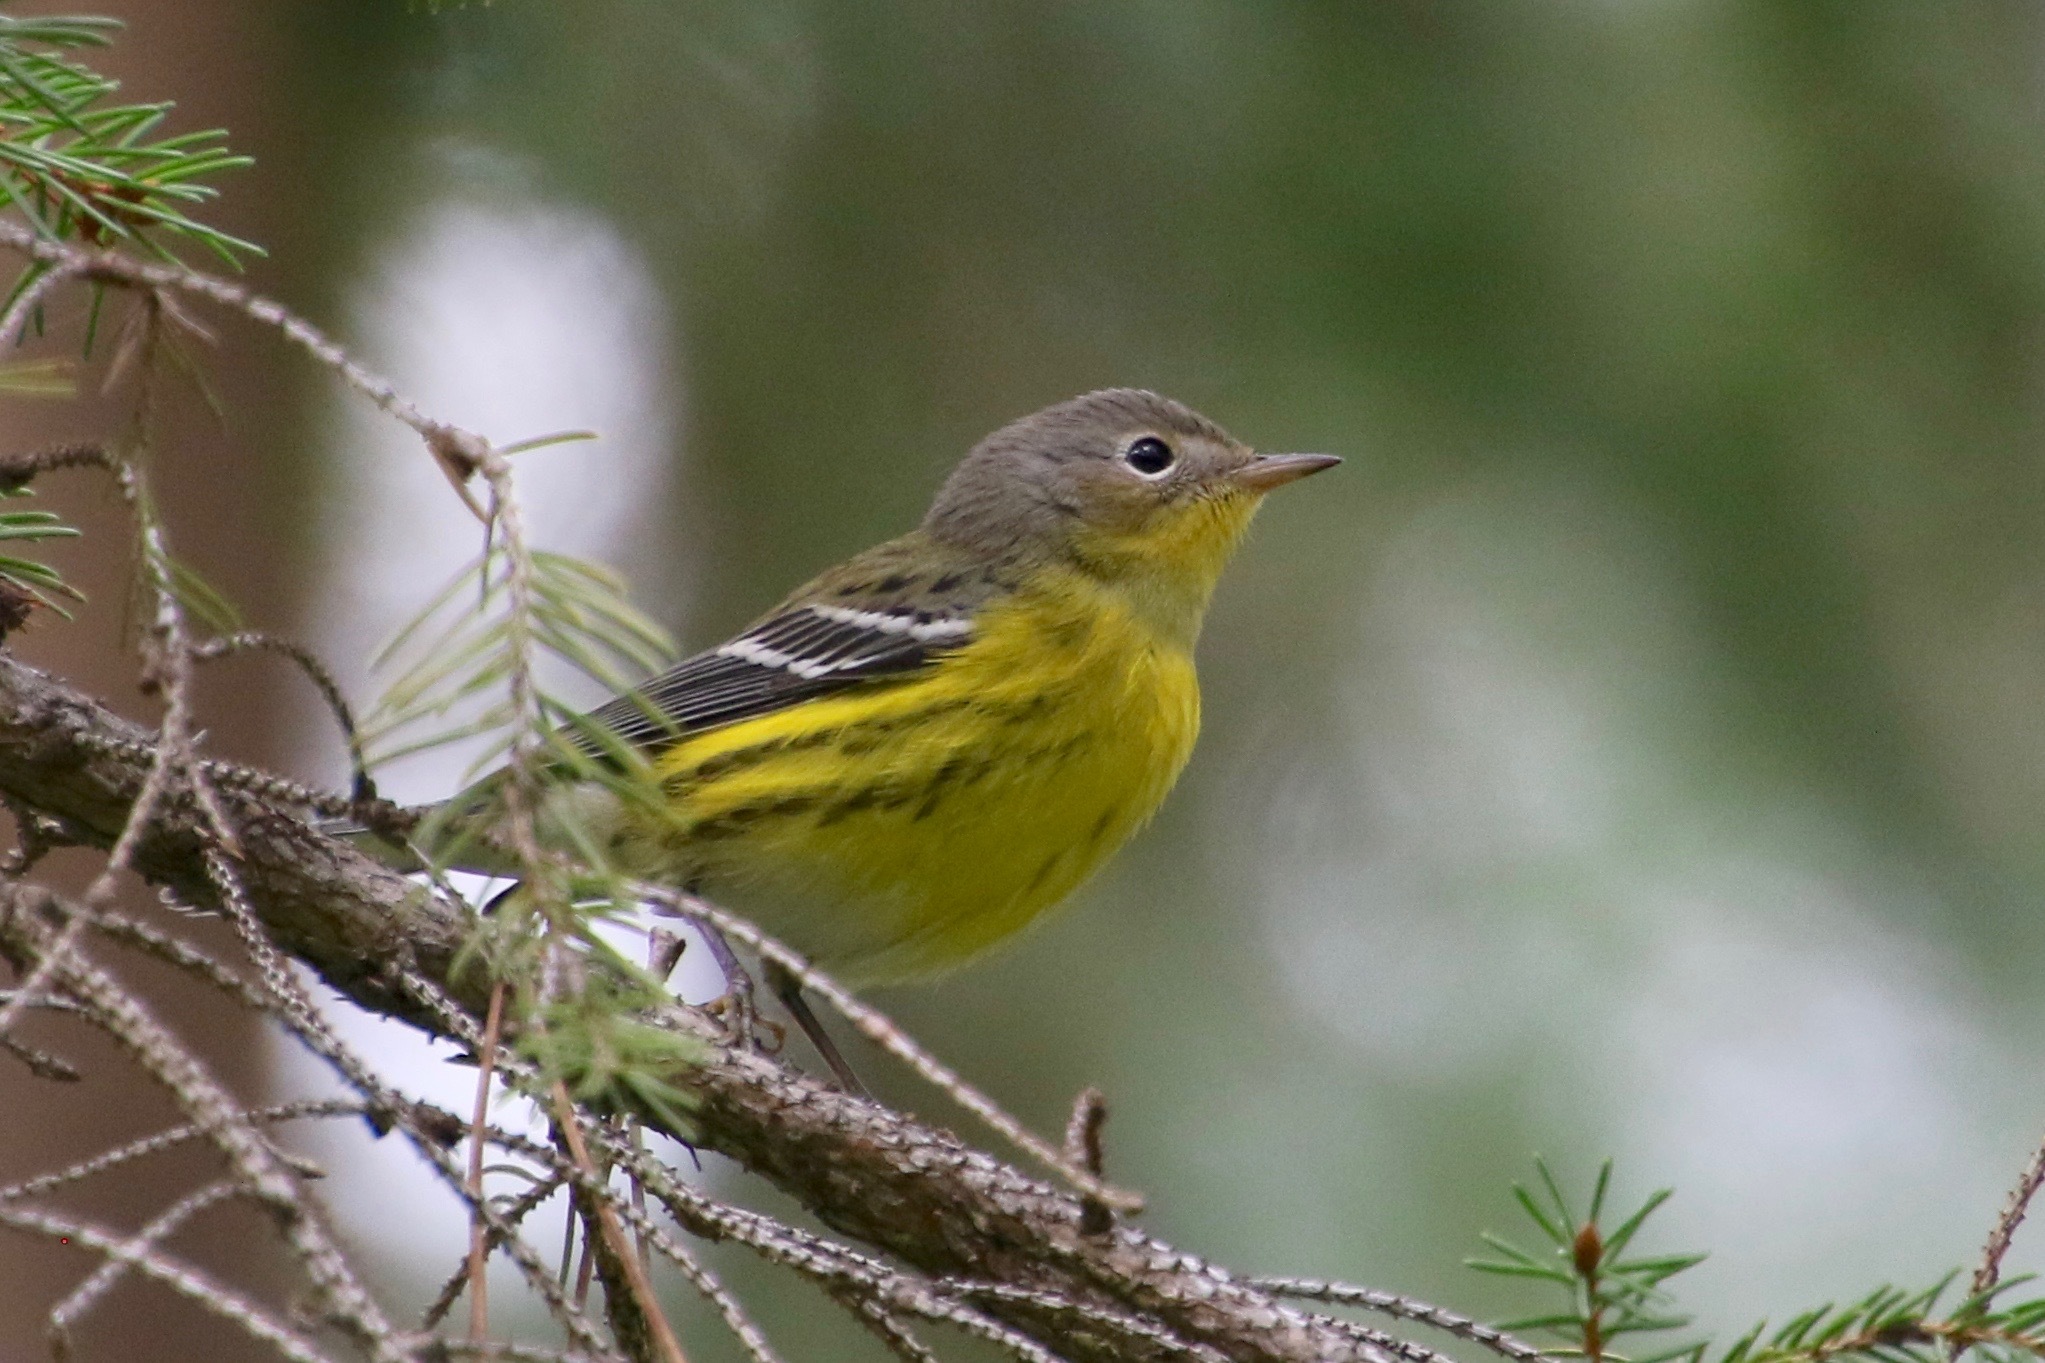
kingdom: Animalia
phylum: Chordata
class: Aves
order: Passeriformes
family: Parulidae
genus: Setophaga
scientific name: Setophaga magnolia
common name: Magnolia warbler
